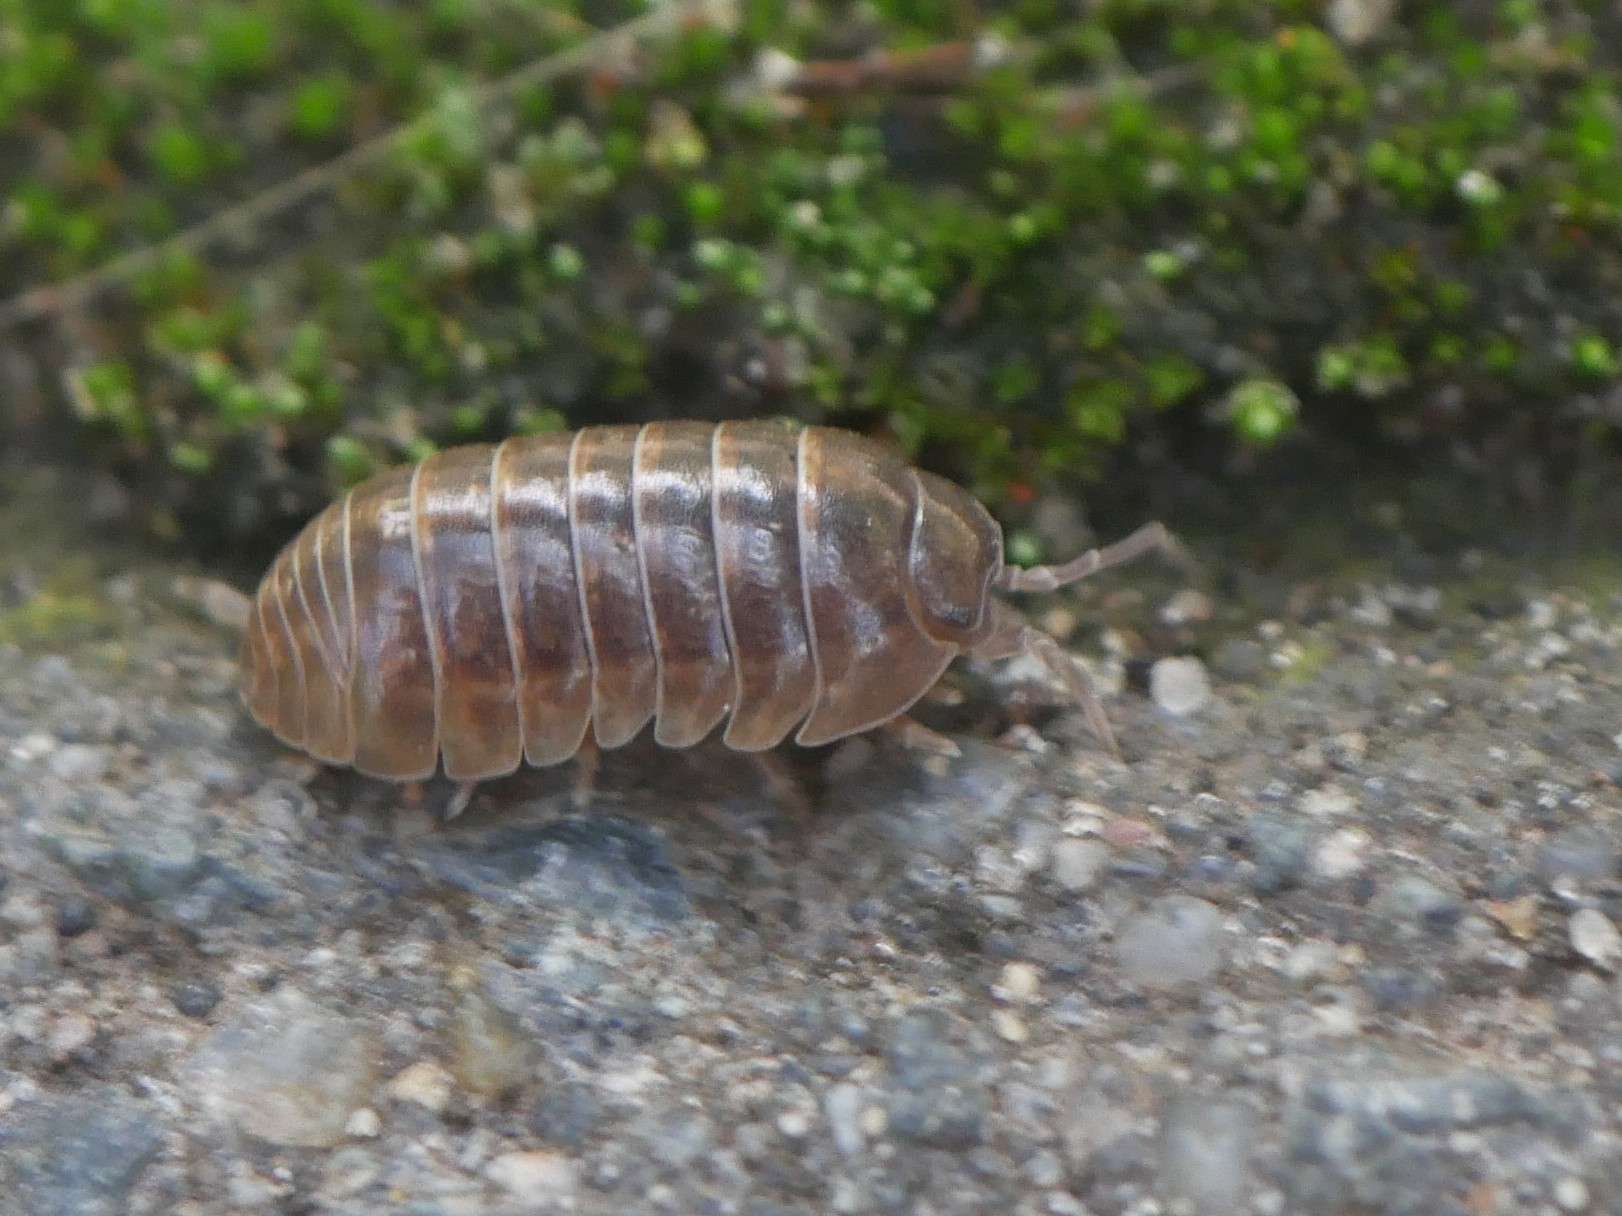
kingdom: Animalia
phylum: Arthropoda
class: Malacostraca
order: Isopoda
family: Armadillidiidae
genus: Armadillidium
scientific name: Armadillidium vulgare
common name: Common pill woodlouse
